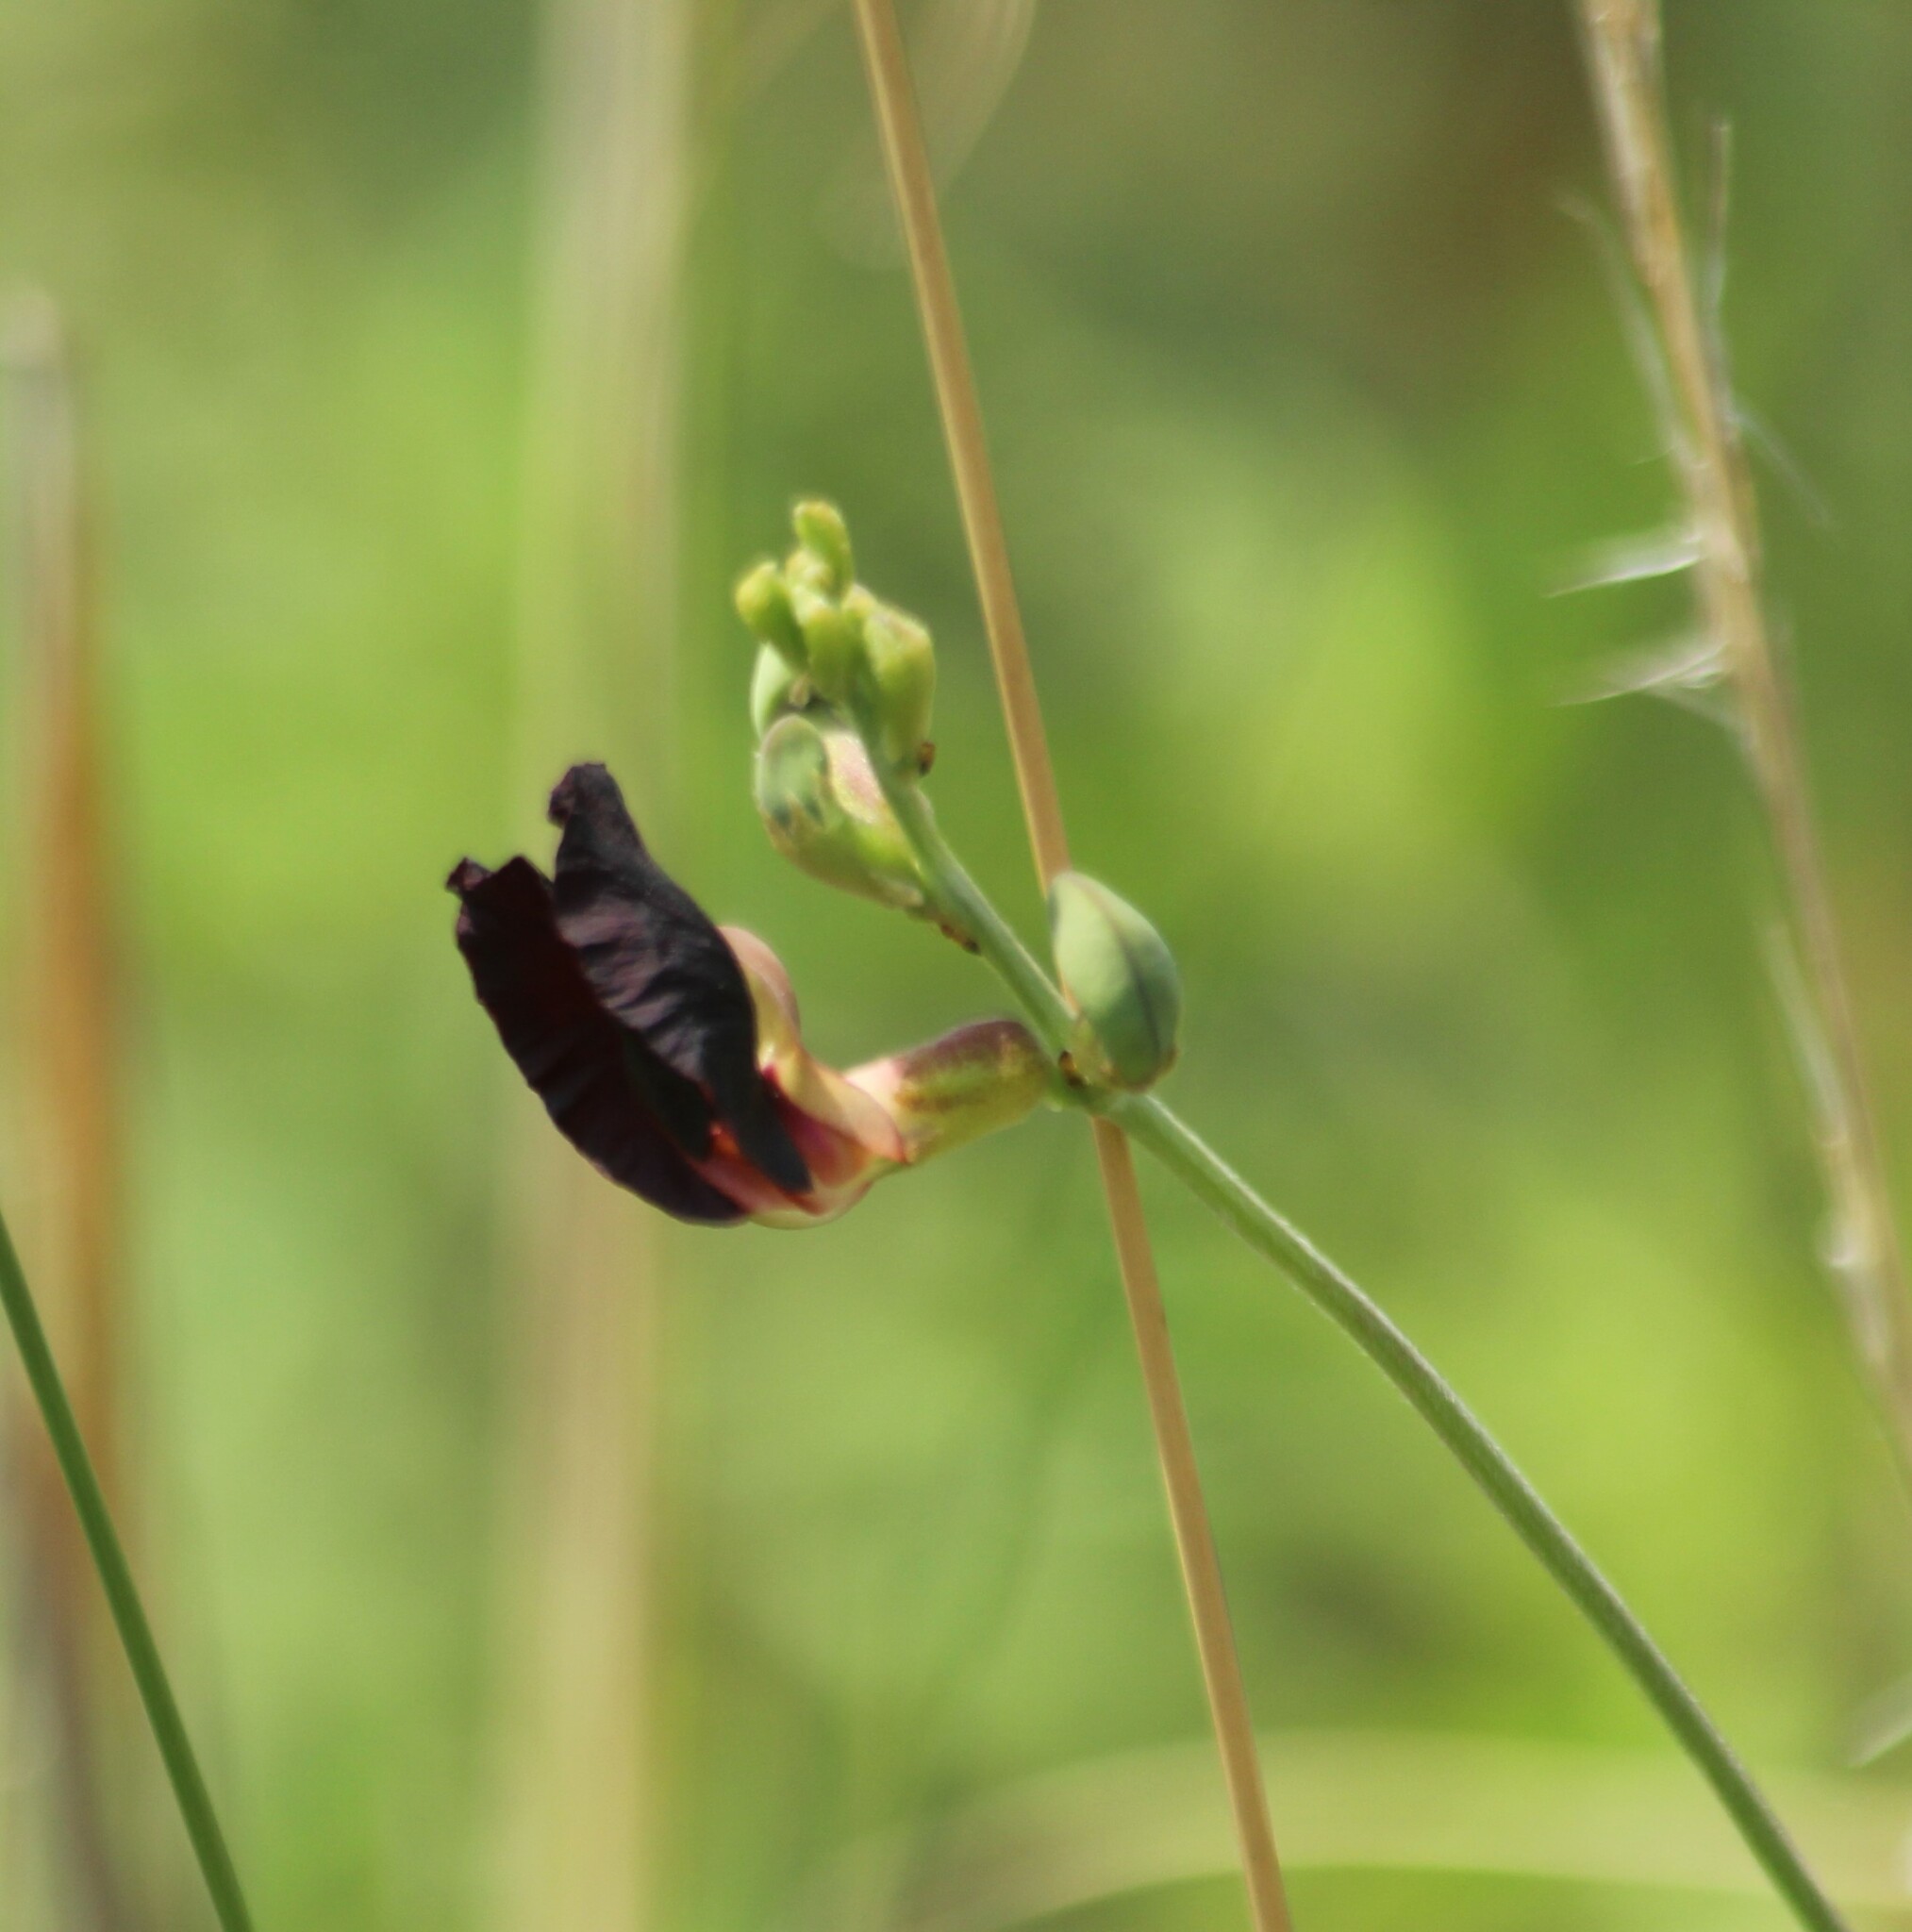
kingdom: Plantae
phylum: Tracheophyta
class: Magnoliopsida
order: Fabales
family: Fabaceae
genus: Macroptilium
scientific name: Macroptilium atropurpureum
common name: Purple bushbean
